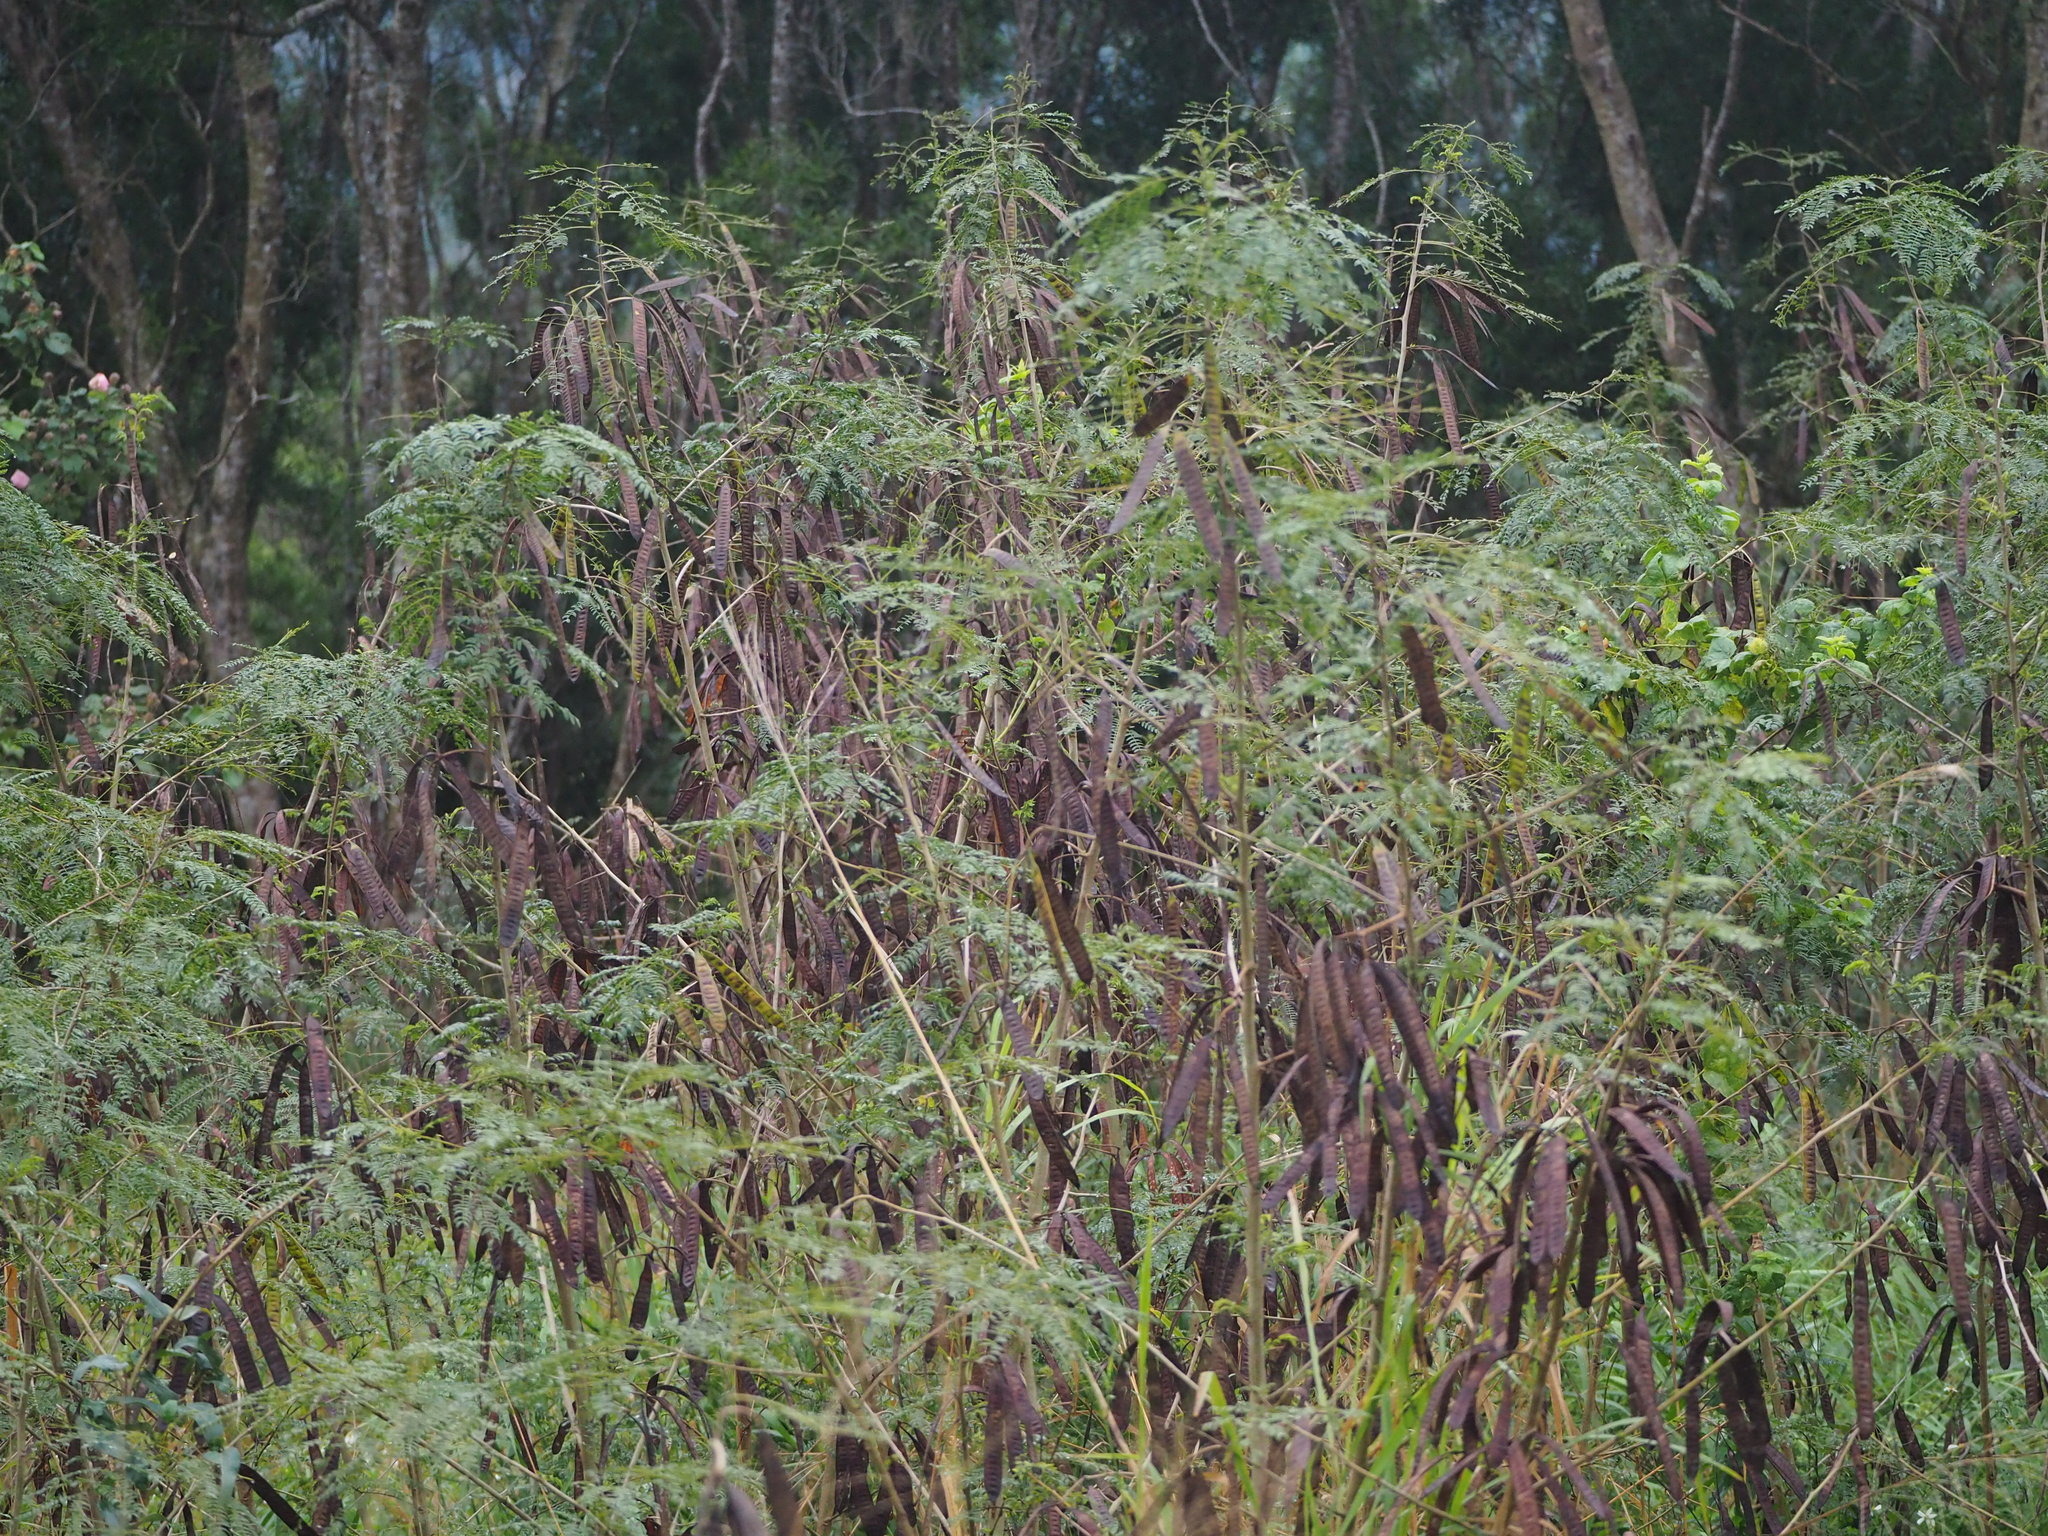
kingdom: Plantae
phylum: Tracheophyta
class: Magnoliopsida
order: Fabales
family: Fabaceae
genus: Leucaena
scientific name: Leucaena leucocephala
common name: White leadtree
